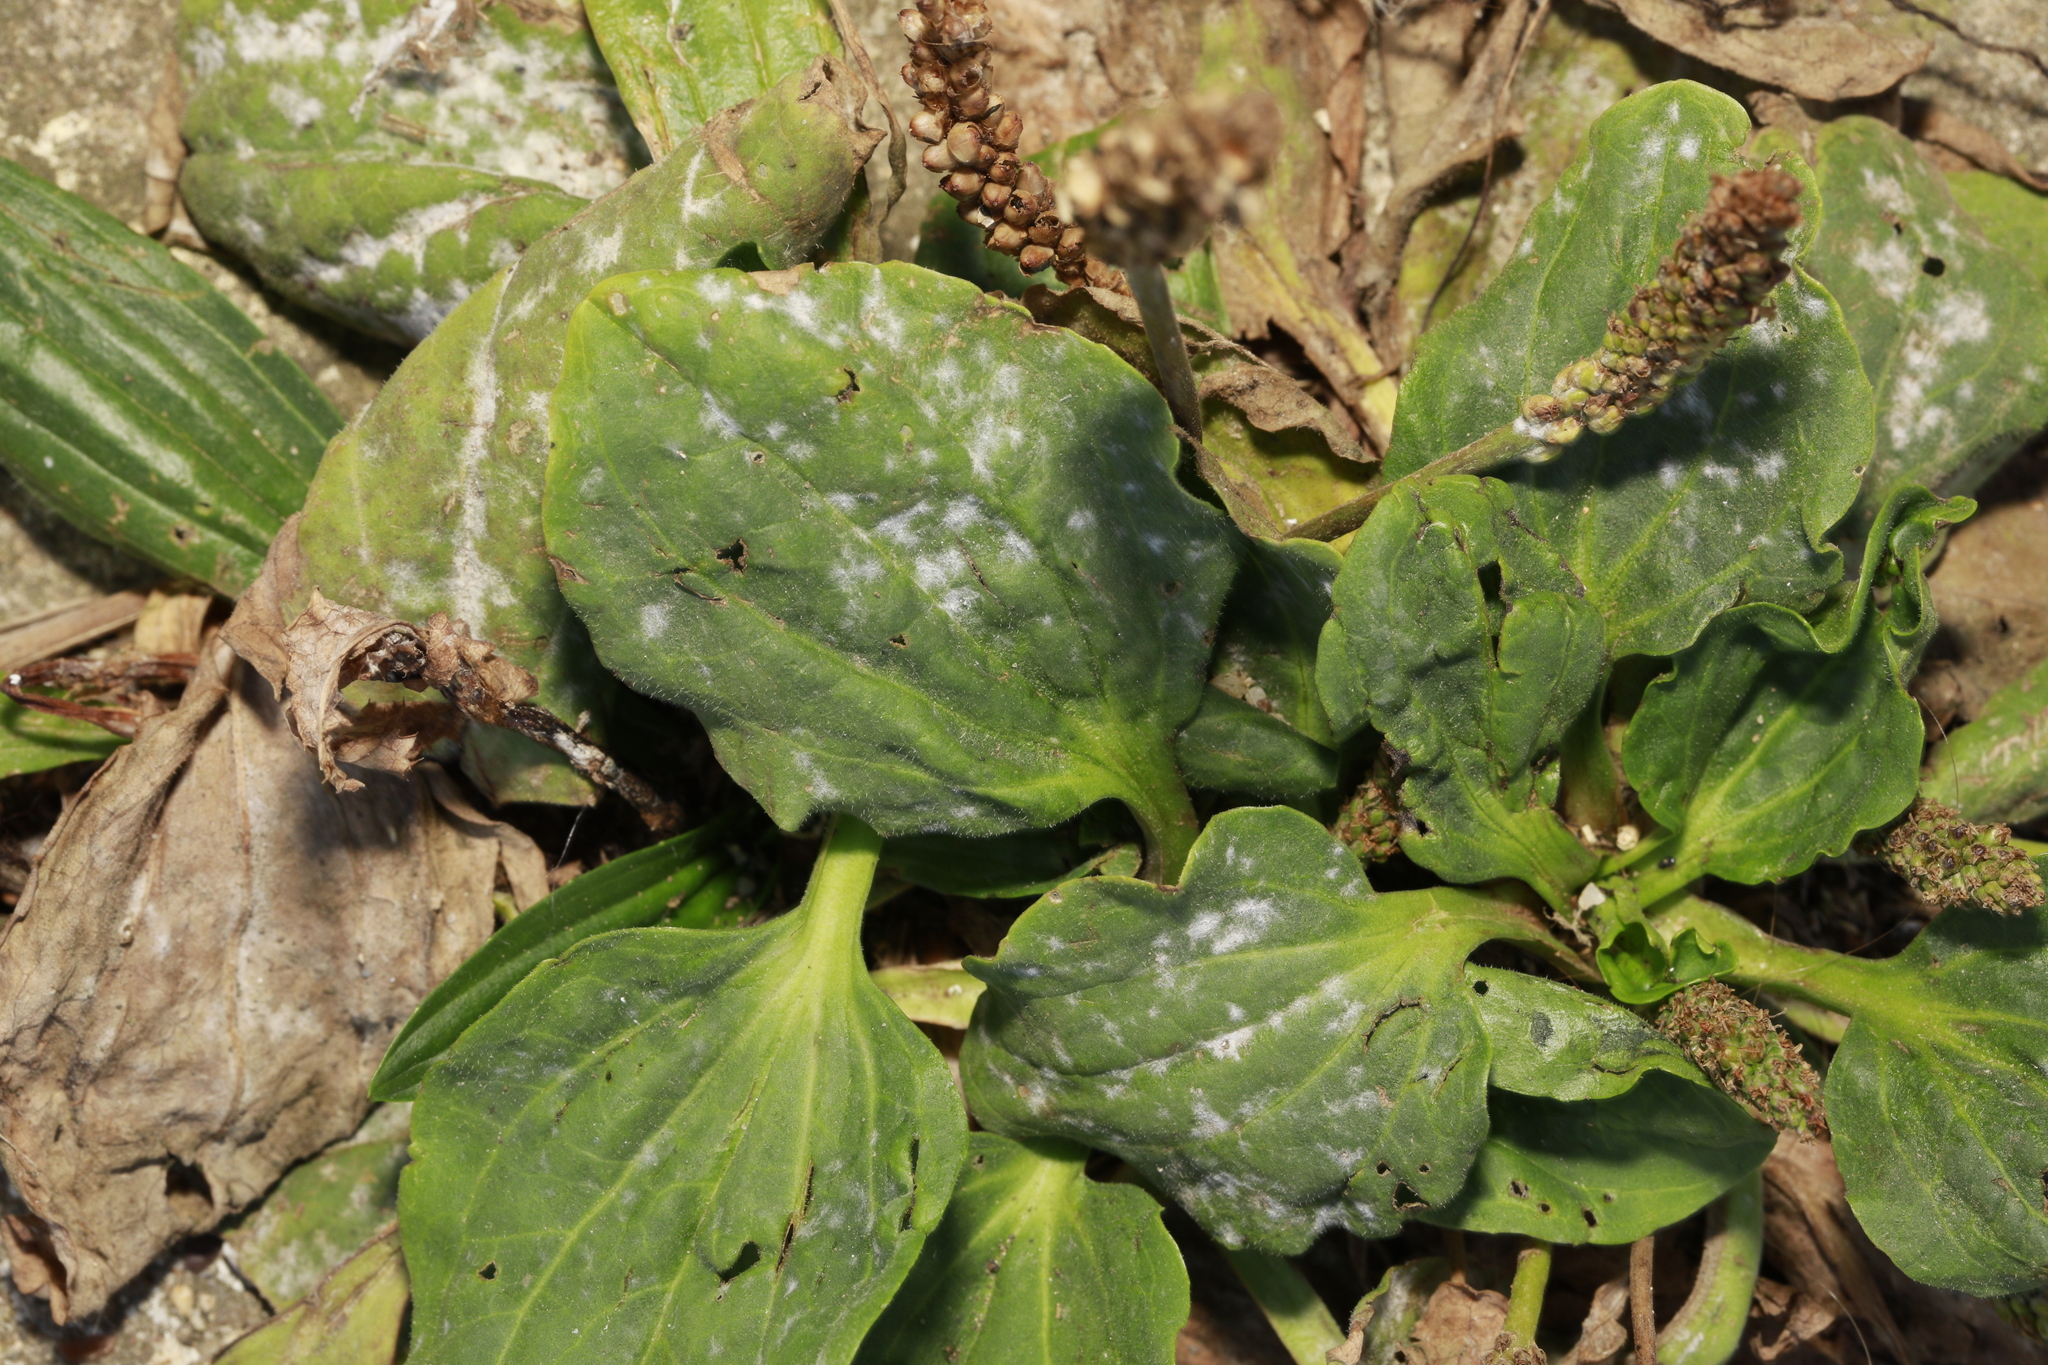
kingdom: Fungi
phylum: Ascomycota
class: Leotiomycetes
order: Helotiales
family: Erysiphaceae
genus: Golovinomyces
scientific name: Golovinomyces sordidus
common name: Plantain mildew
